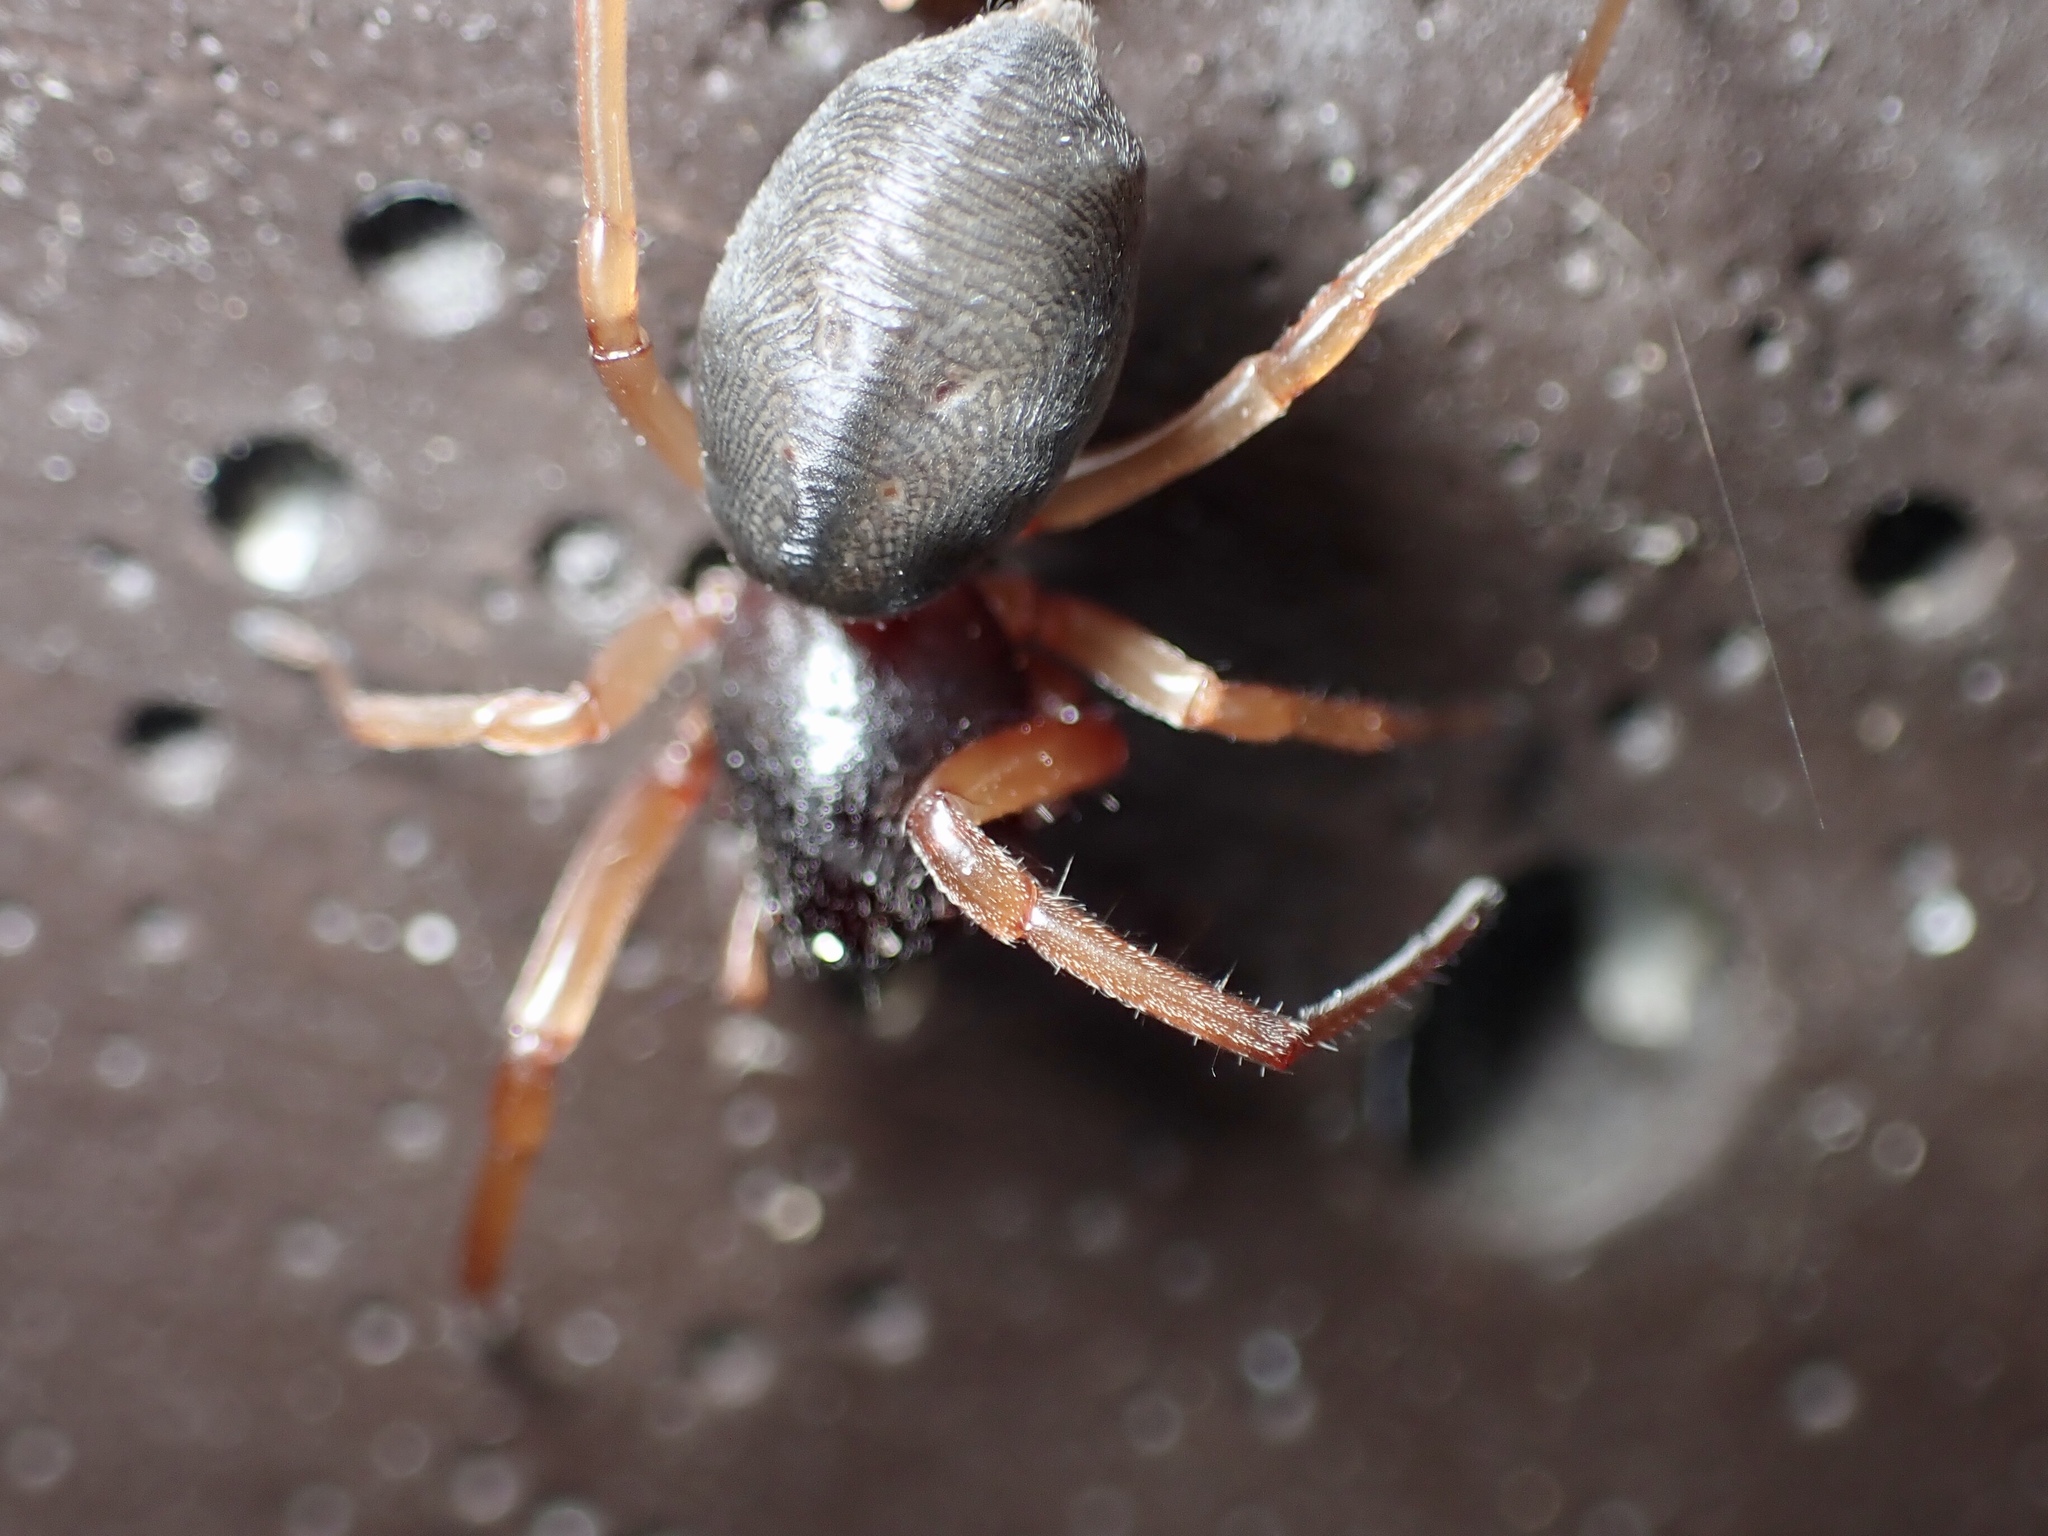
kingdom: Animalia
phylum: Arthropoda
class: Arachnida
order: Araneae
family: Trachelidae
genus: Trachelas
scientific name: Trachelas tranquillus
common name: Broad-faced sac spider
